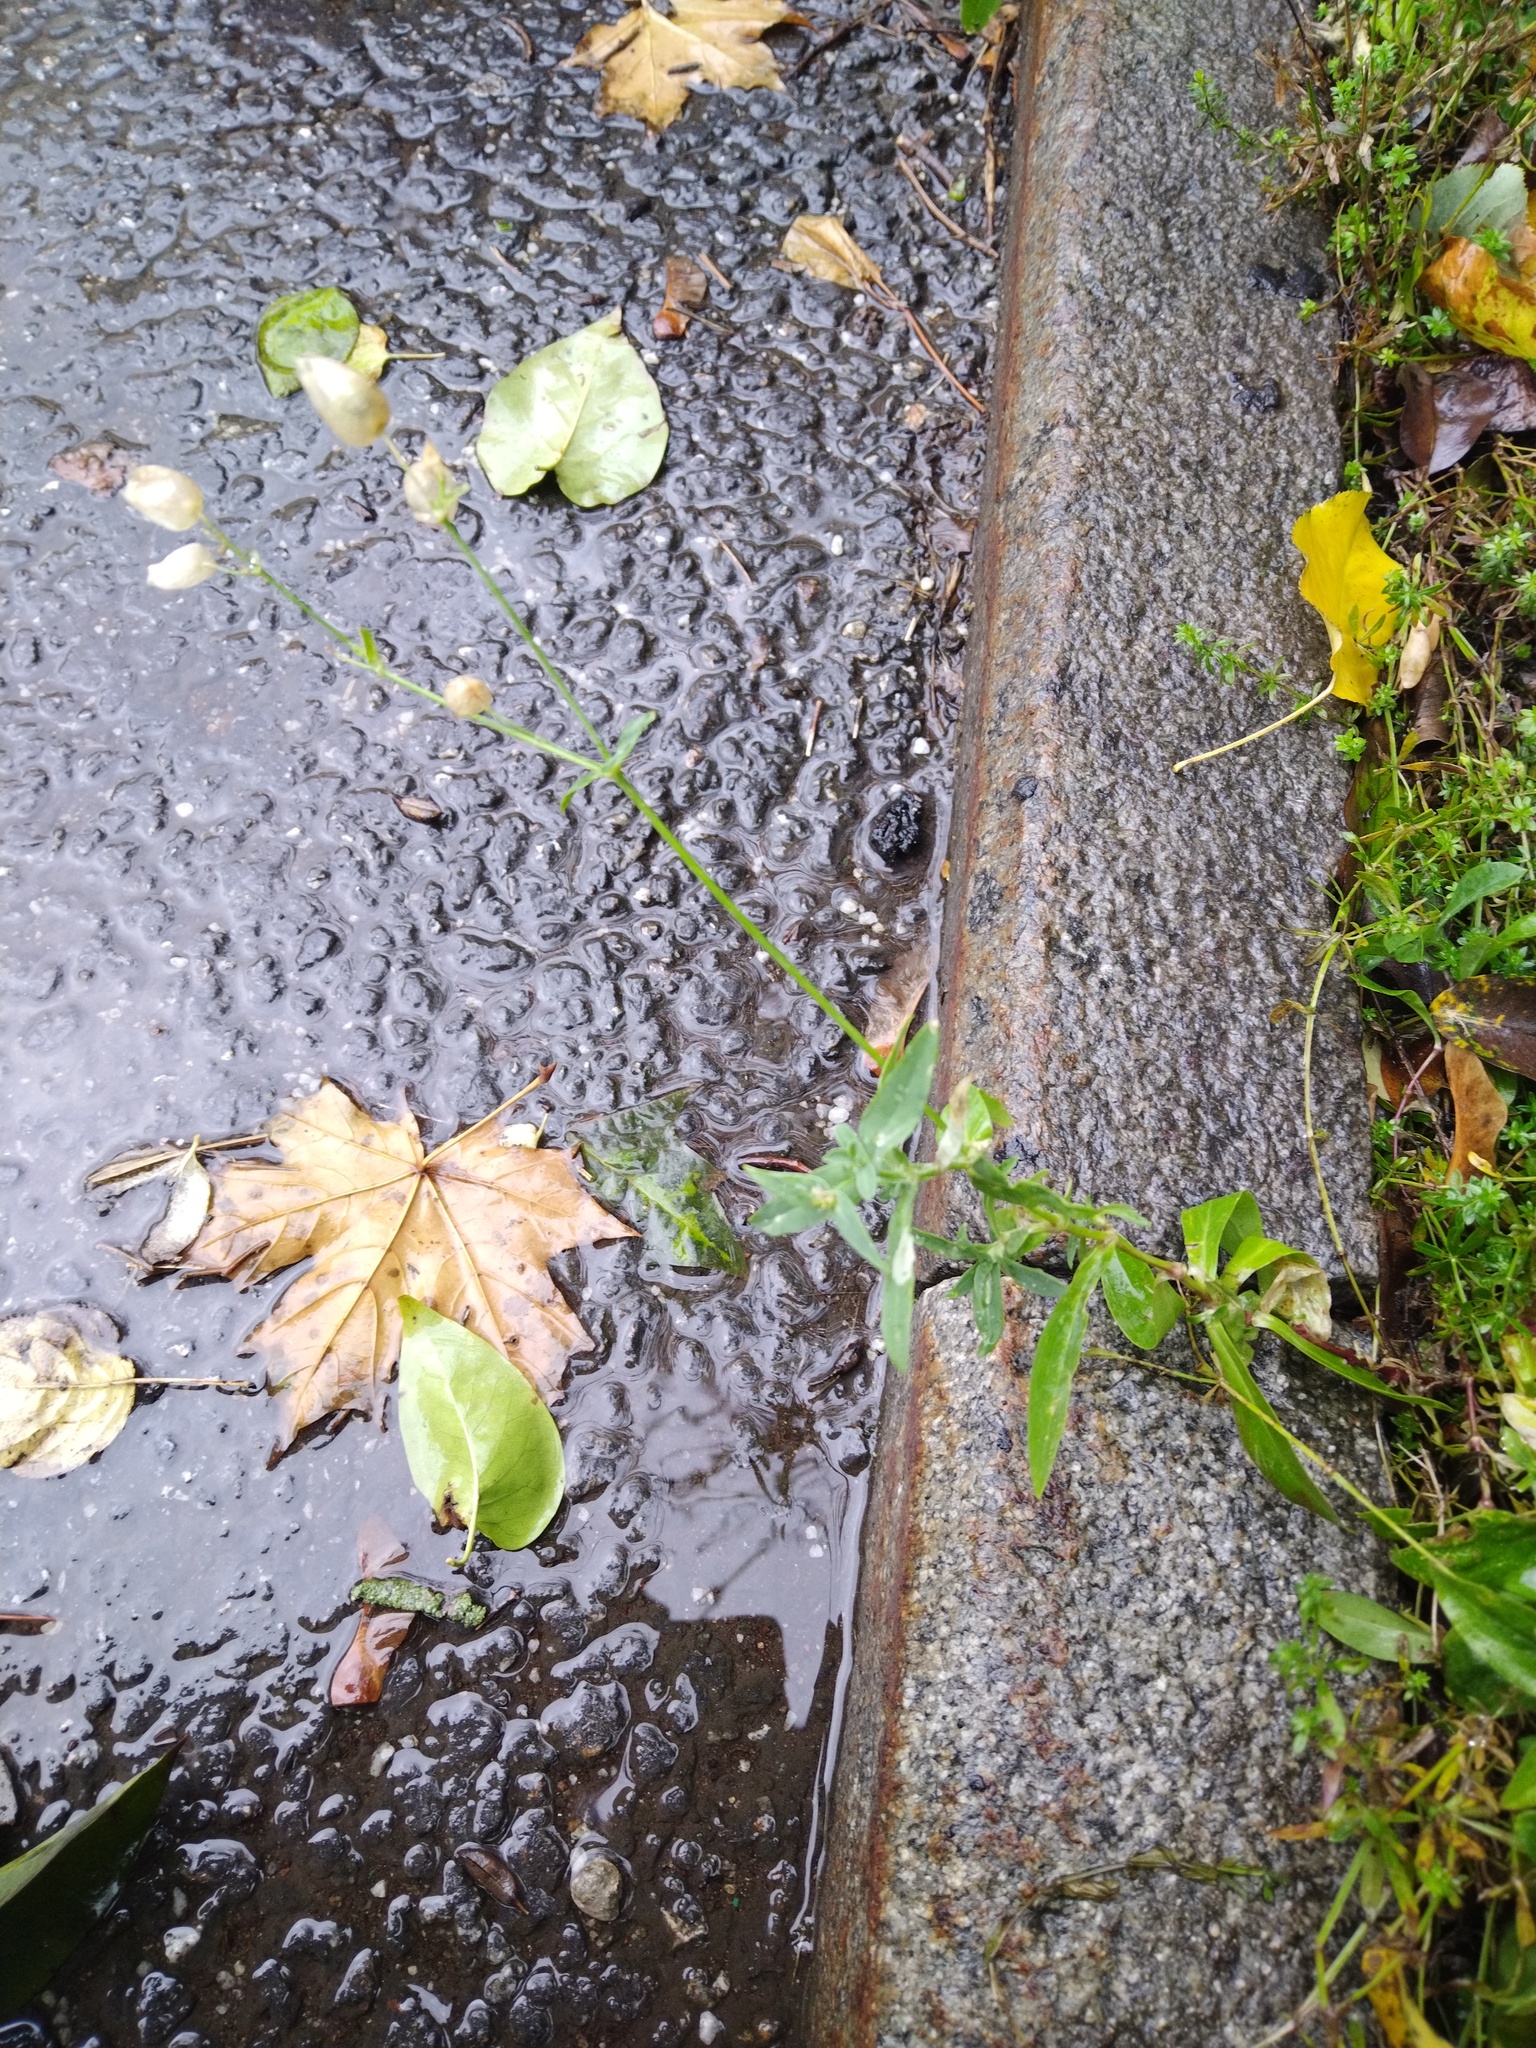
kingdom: Plantae
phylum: Tracheophyta
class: Magnoliopsida
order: Caryophyllales
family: Caryophyllaceae
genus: Silene
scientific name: Silene vulgaris
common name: Bladder campion
